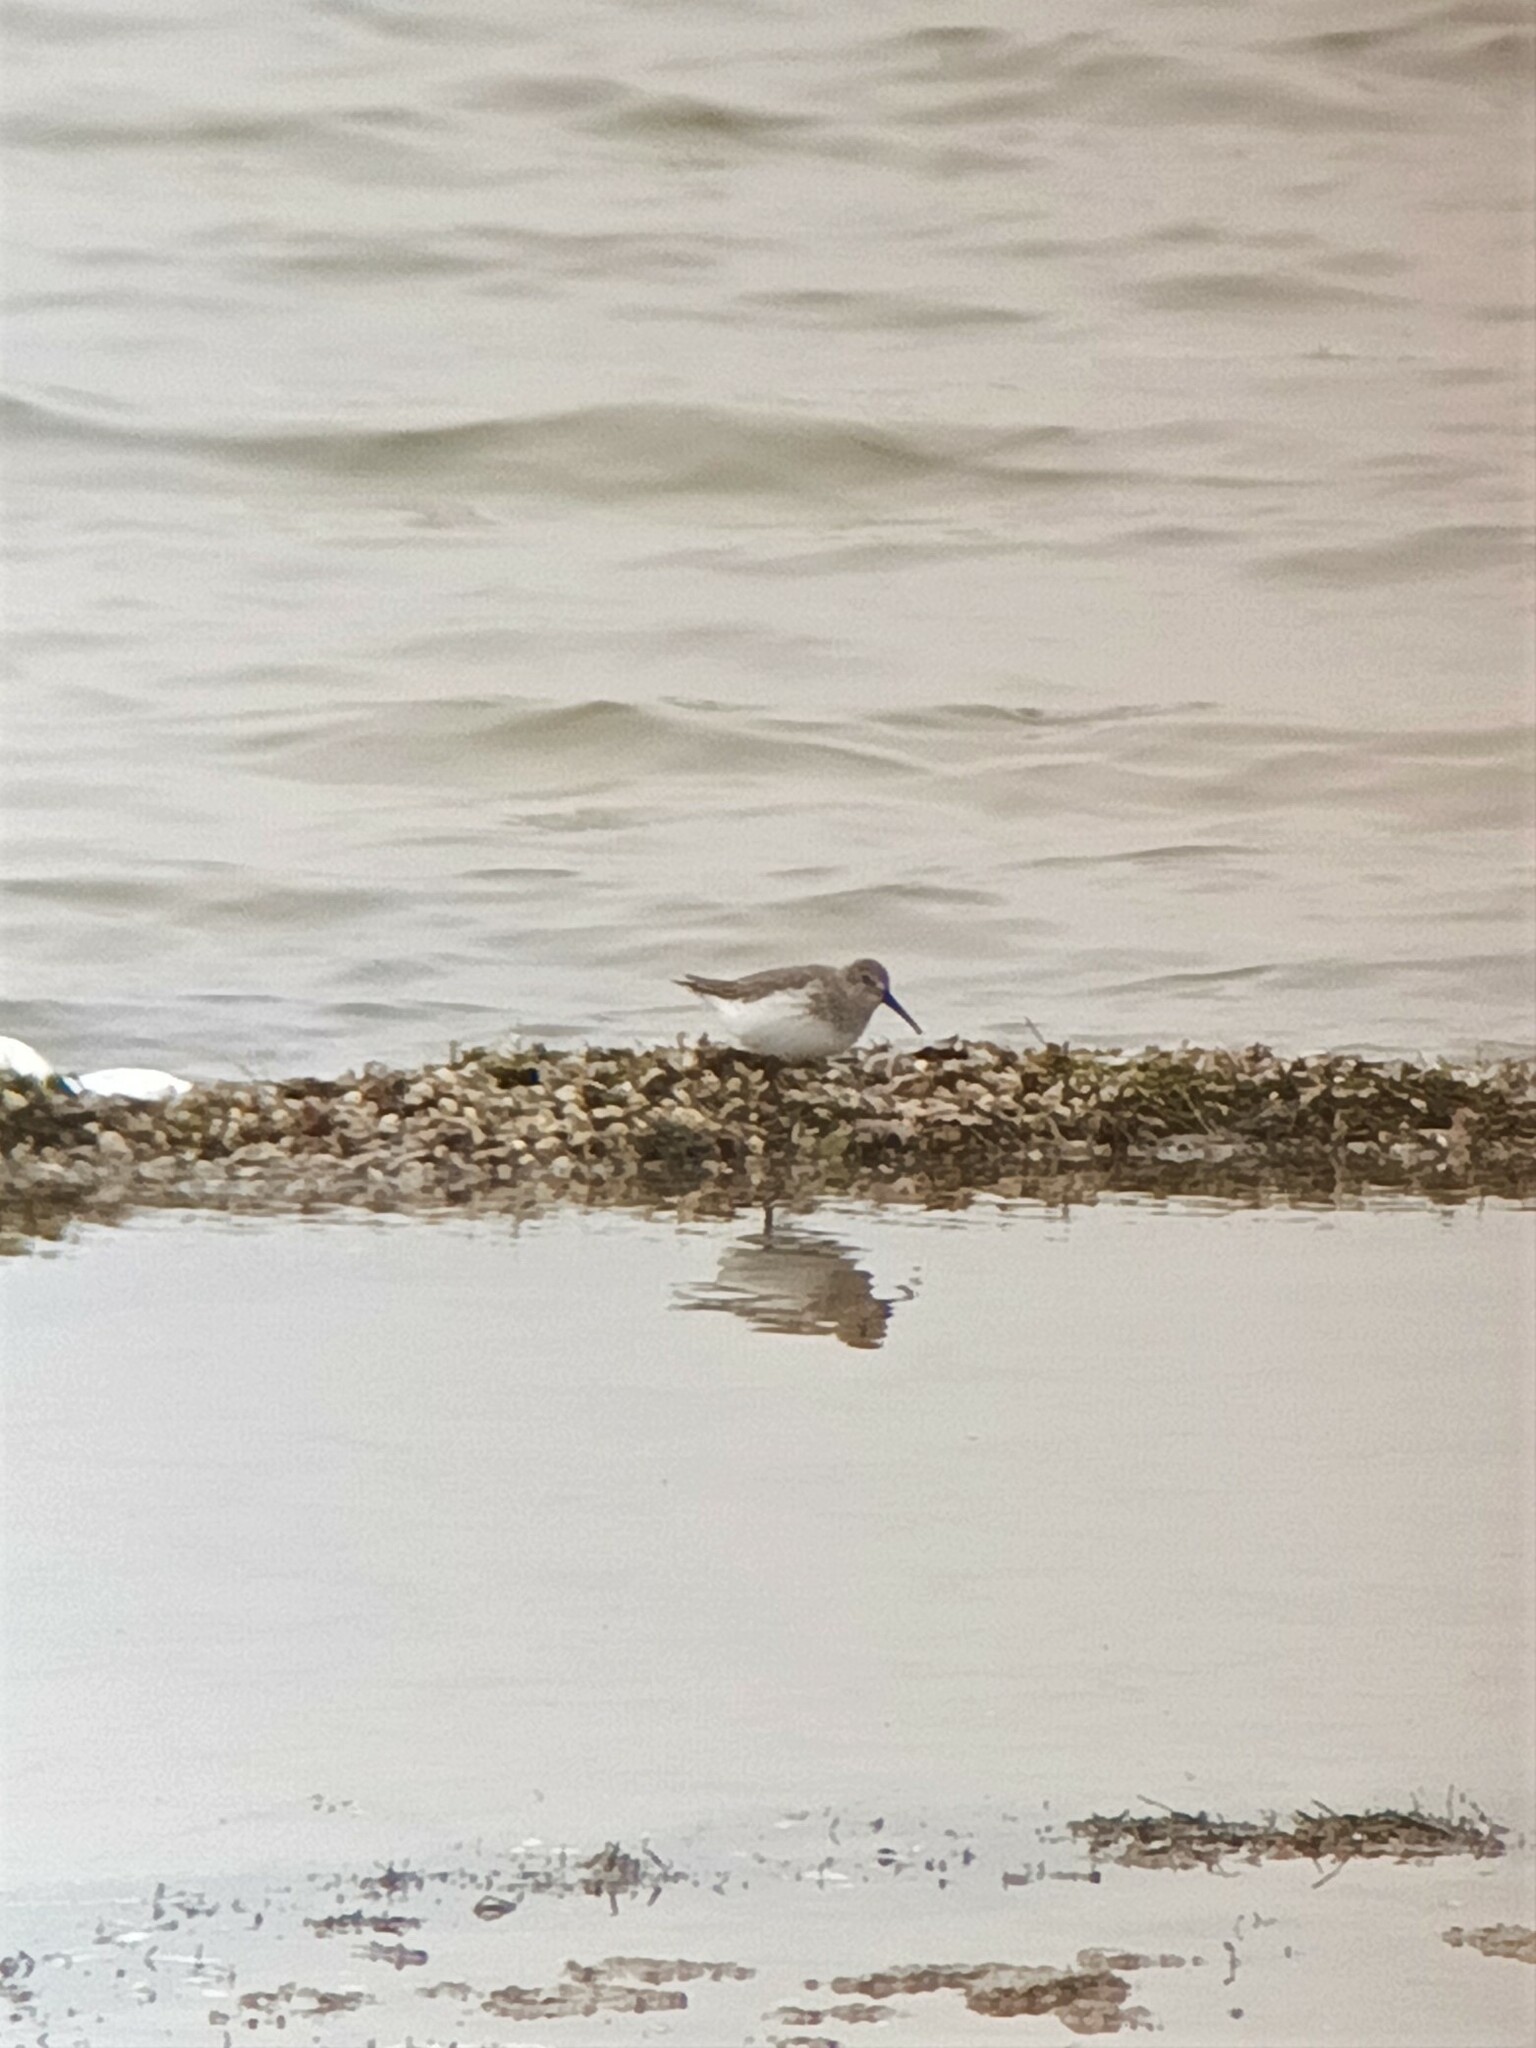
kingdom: Animalia
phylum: Chordata
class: Aves
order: Charadriiformes
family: Scolopacidae
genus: Calidris
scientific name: Calidris alpina
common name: Dunlin
